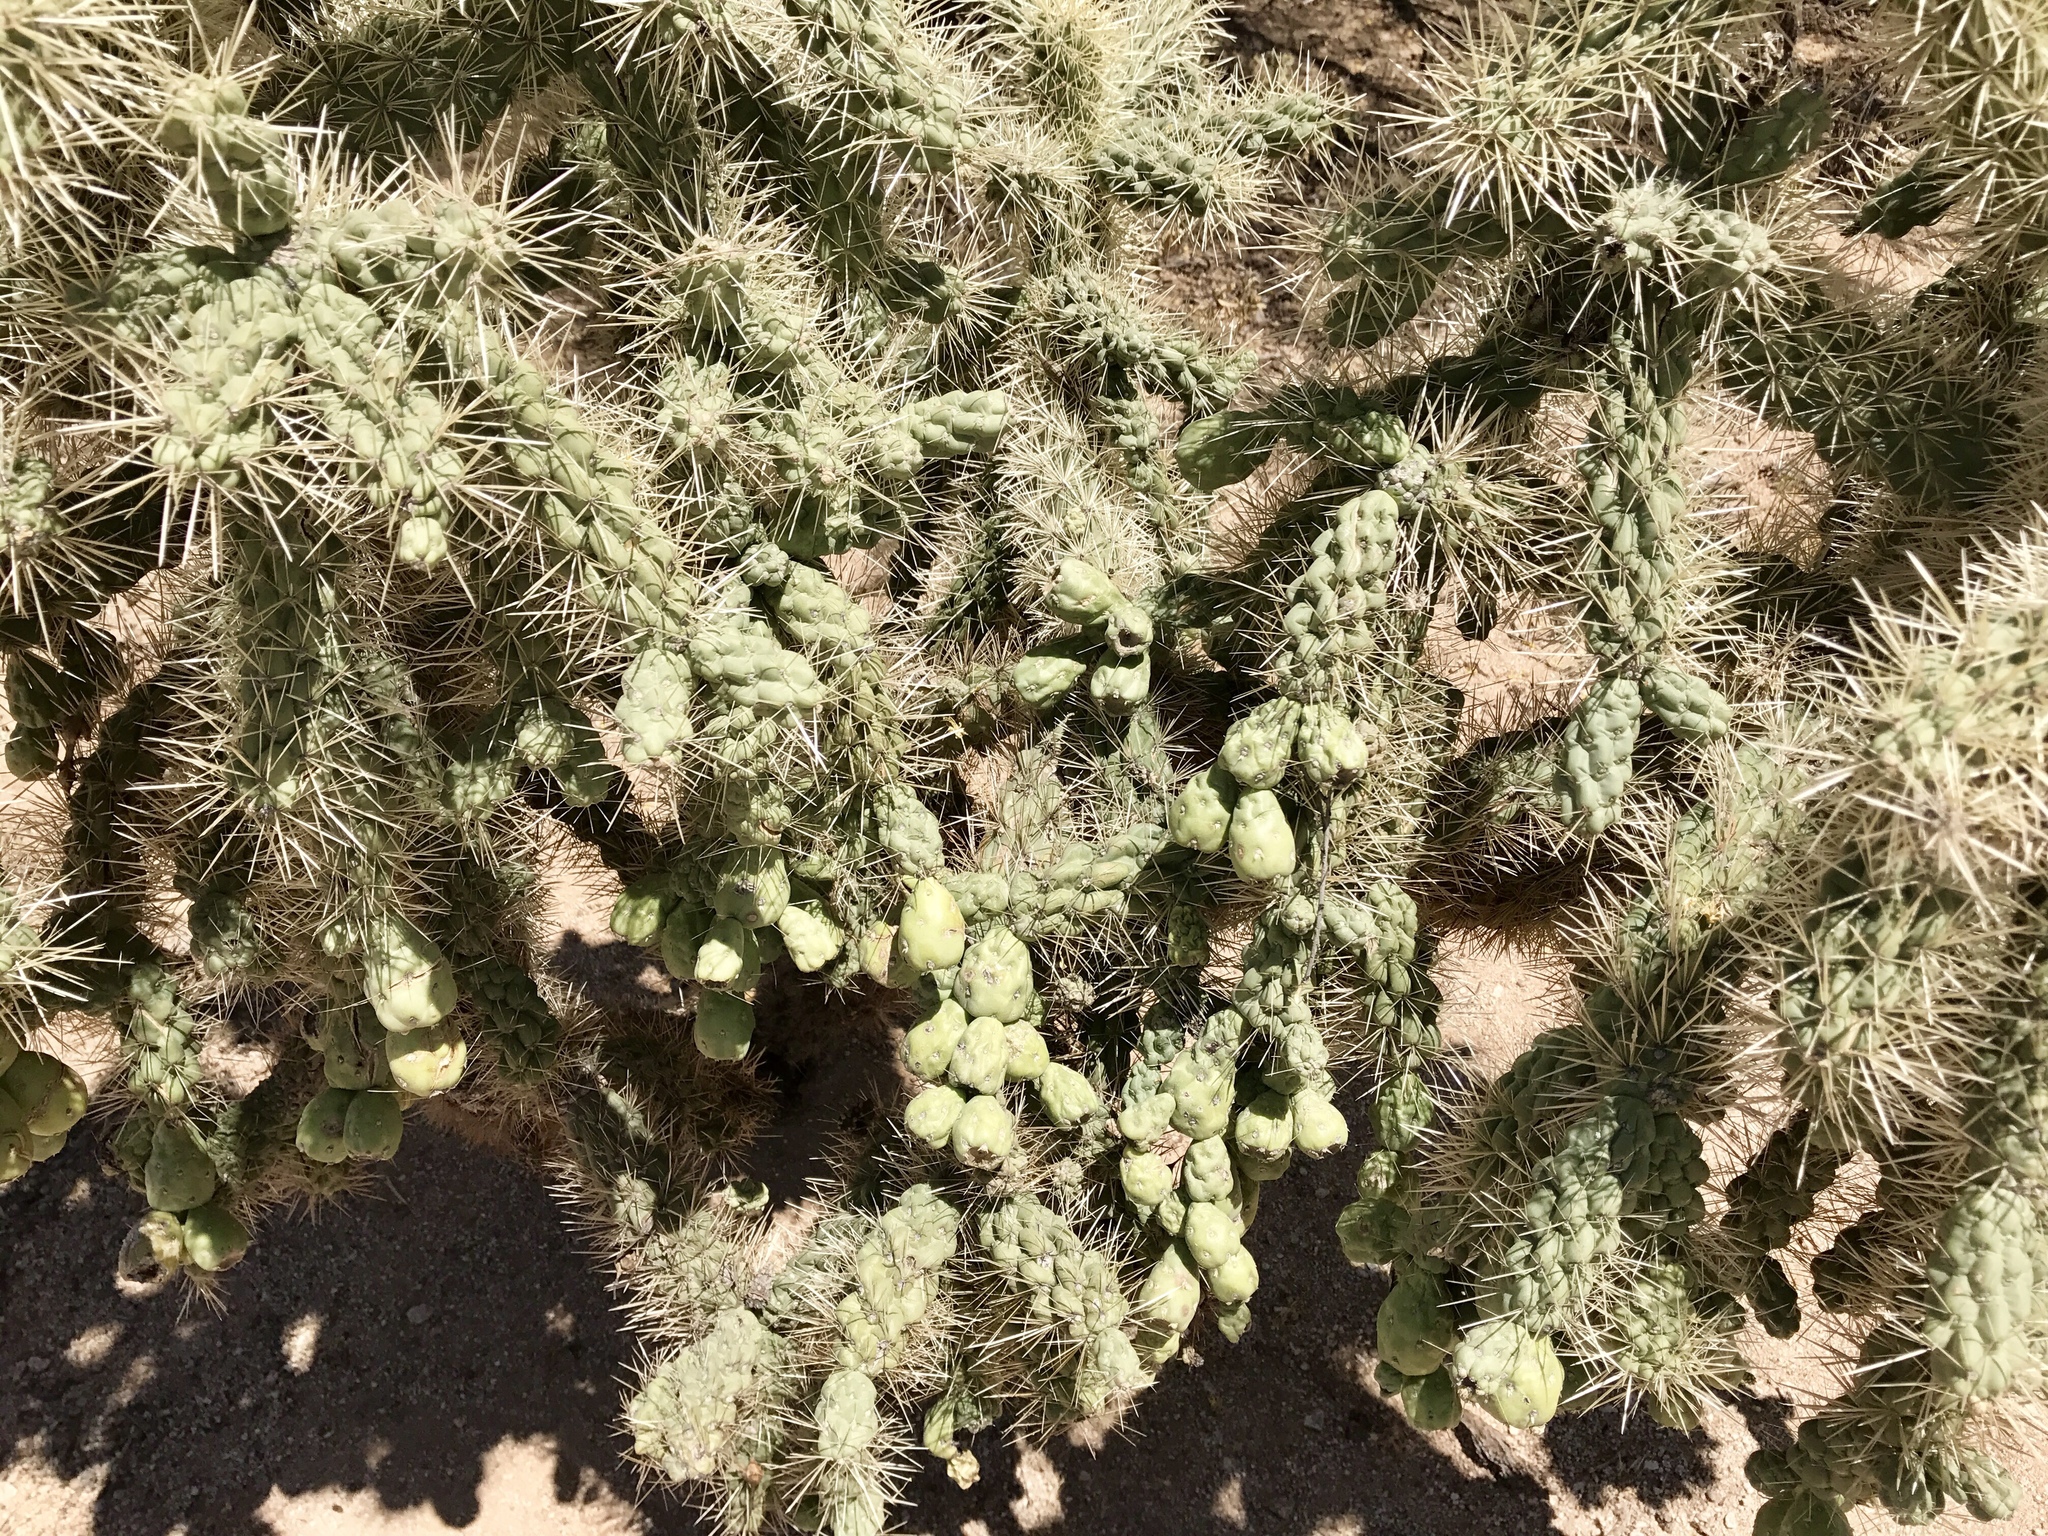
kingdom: Plantae
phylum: Tracheophyta
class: Magnoliopsida
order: Caryophyllales
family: Cactaceae
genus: Cylindropuntia
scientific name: Cylindropuntia fulgida
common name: Jumping cholla
